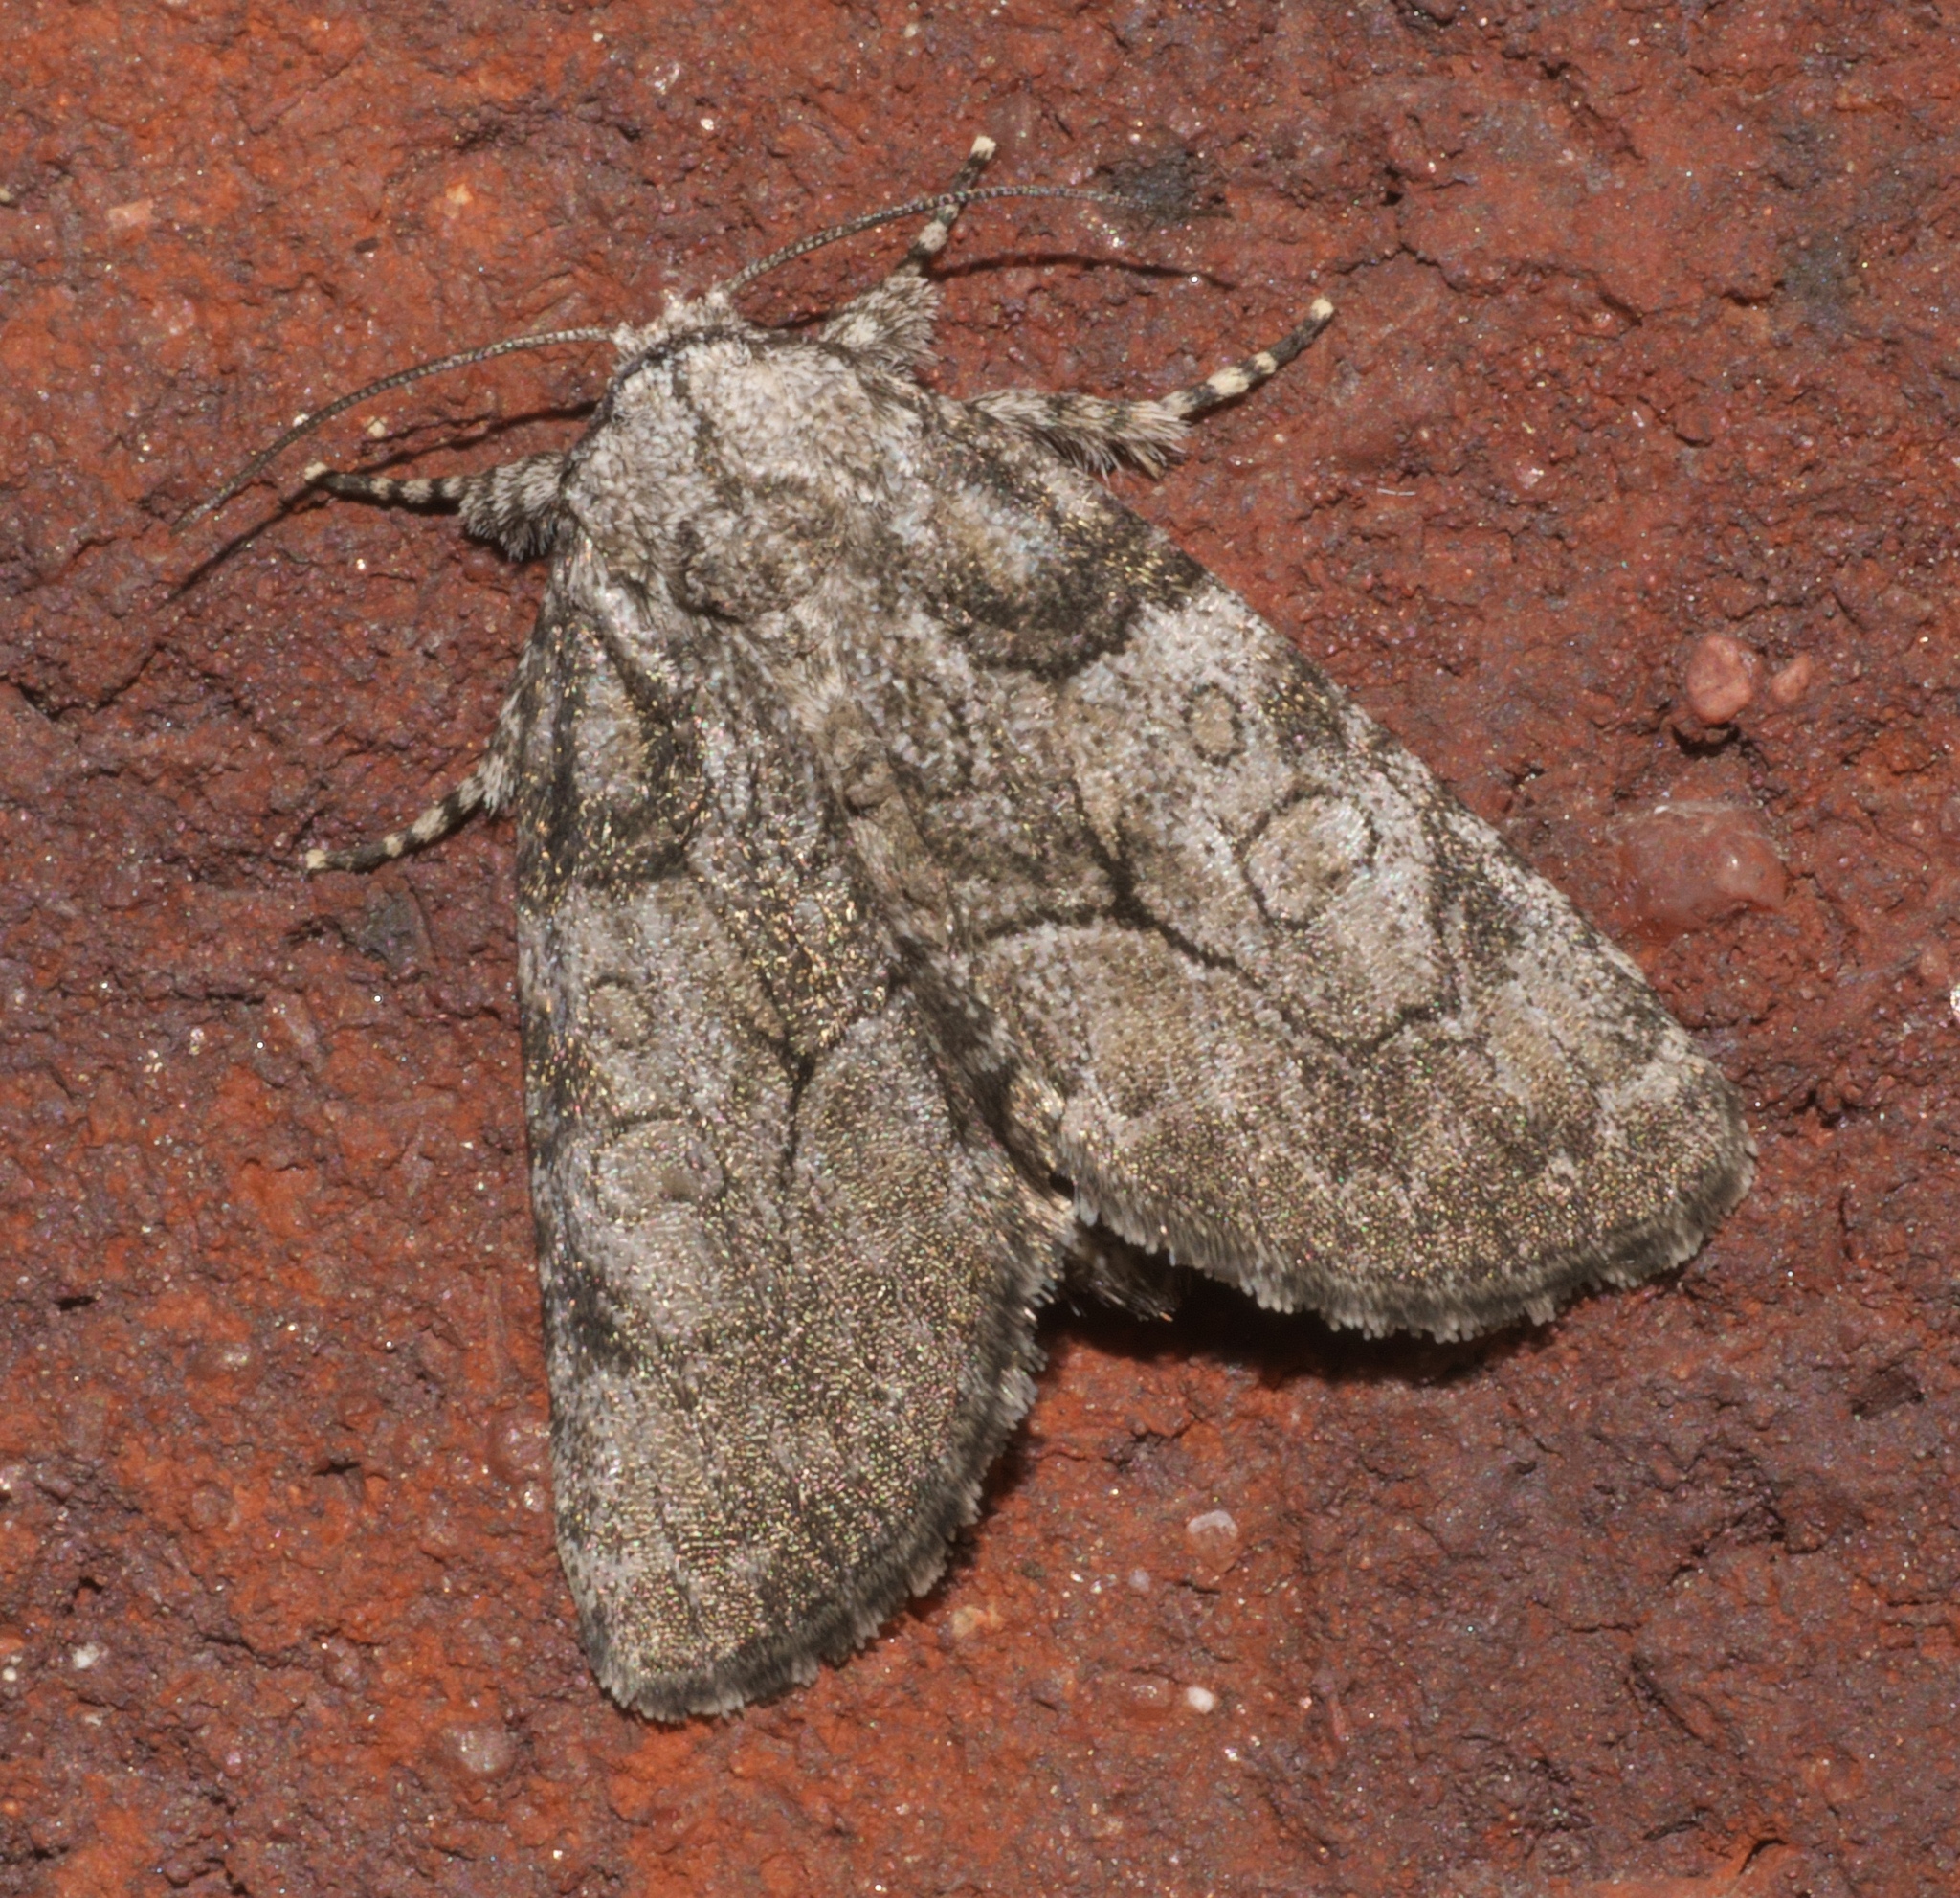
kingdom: Animalia
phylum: Arthropoda
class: Insecta
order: Lepidoptera
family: Noctuidae
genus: Raphia
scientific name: Raphia frater
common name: Brother
